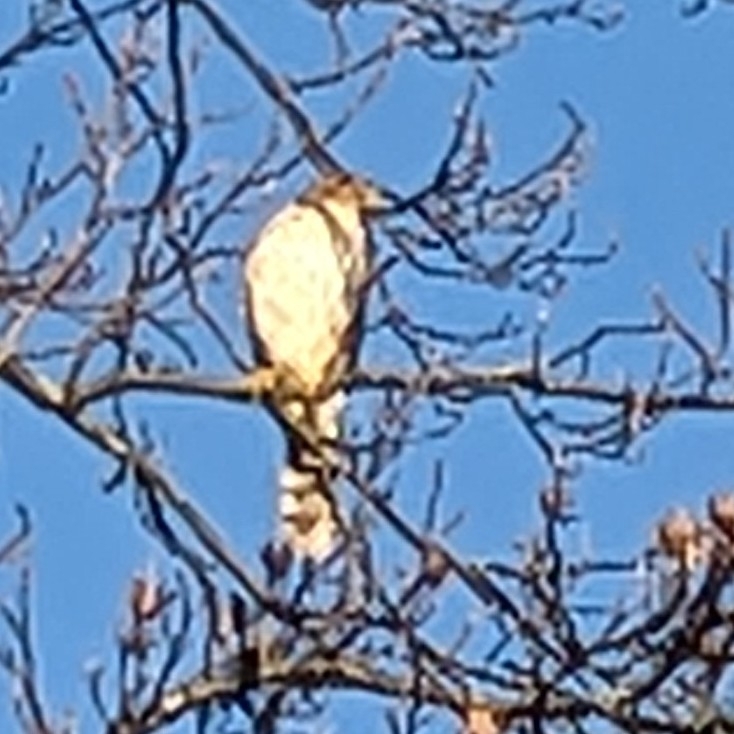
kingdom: Animalia
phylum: Chordata
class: Aves
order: Accipitriformes
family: Accipitridae
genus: Accipiter
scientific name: Accipiter cooperii
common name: Cooper's hawk
